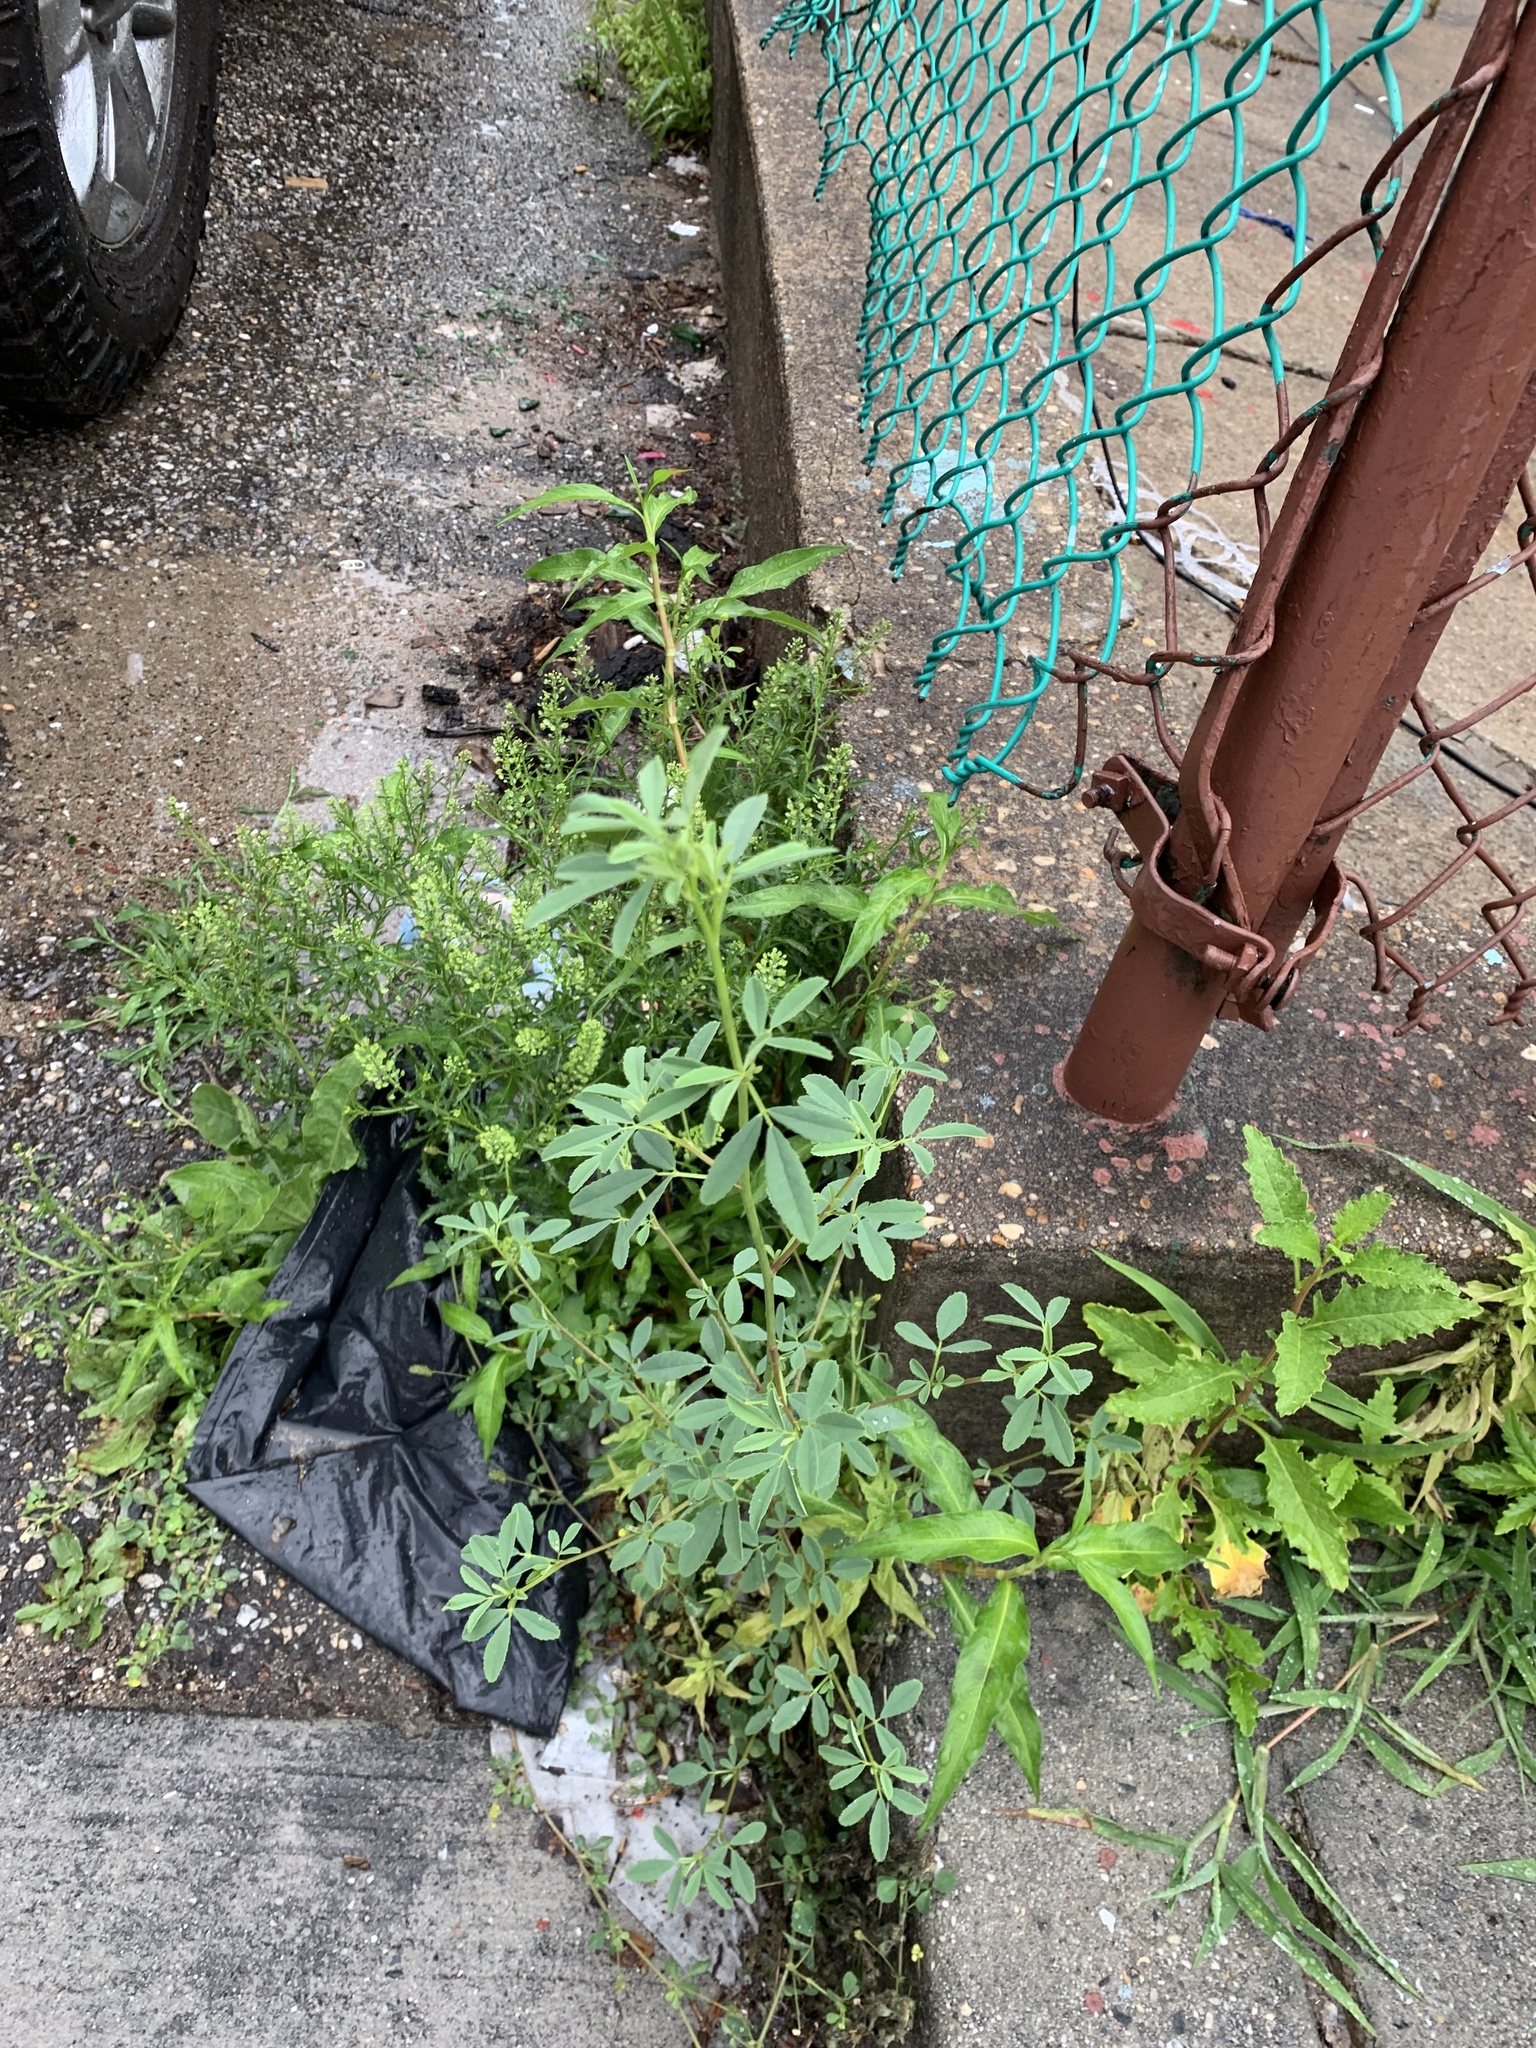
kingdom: Plantae
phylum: Tracheophyta
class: Magnoliopsida
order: Fabales
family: Fabaceae
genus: Melilotus
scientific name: Melilotus albus
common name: White melilot
